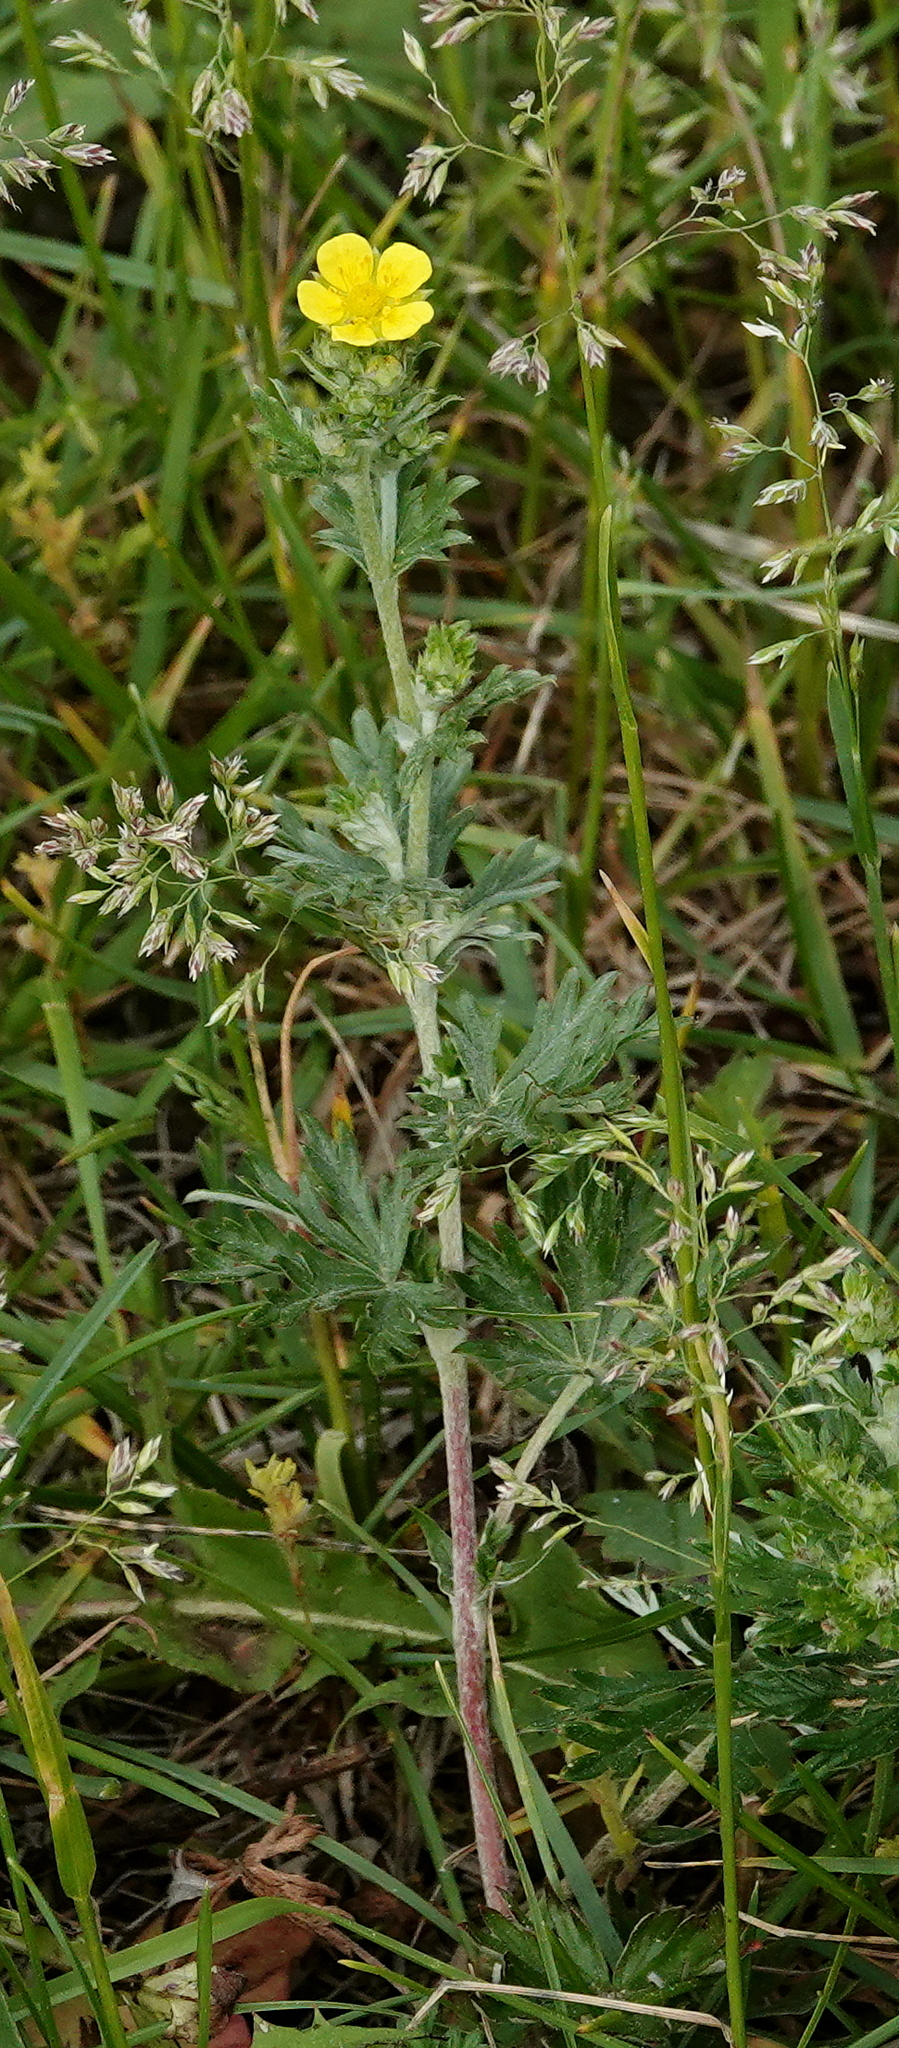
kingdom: Plantae
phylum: Tracheophyta
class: Magnoliopsida
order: Rosales
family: Rosaceae
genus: Potentilla
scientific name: Potentilla argentea
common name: Hoary cinquefoil
